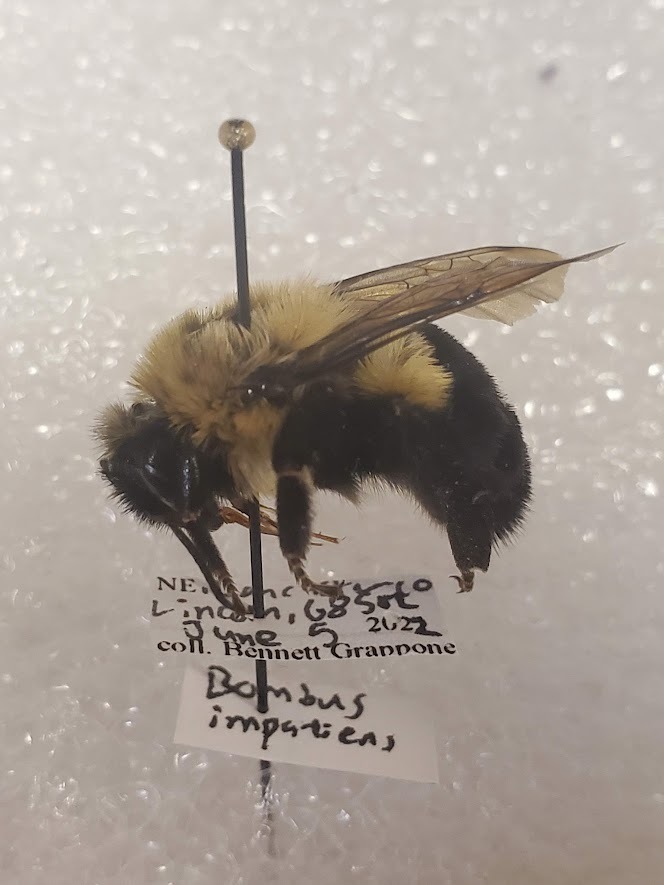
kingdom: Animalia
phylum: Arthropoda
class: Insecta
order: Hymenoptera
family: Apidae
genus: Bombus
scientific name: Bombus impatiens
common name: Common eastern bumble bee
